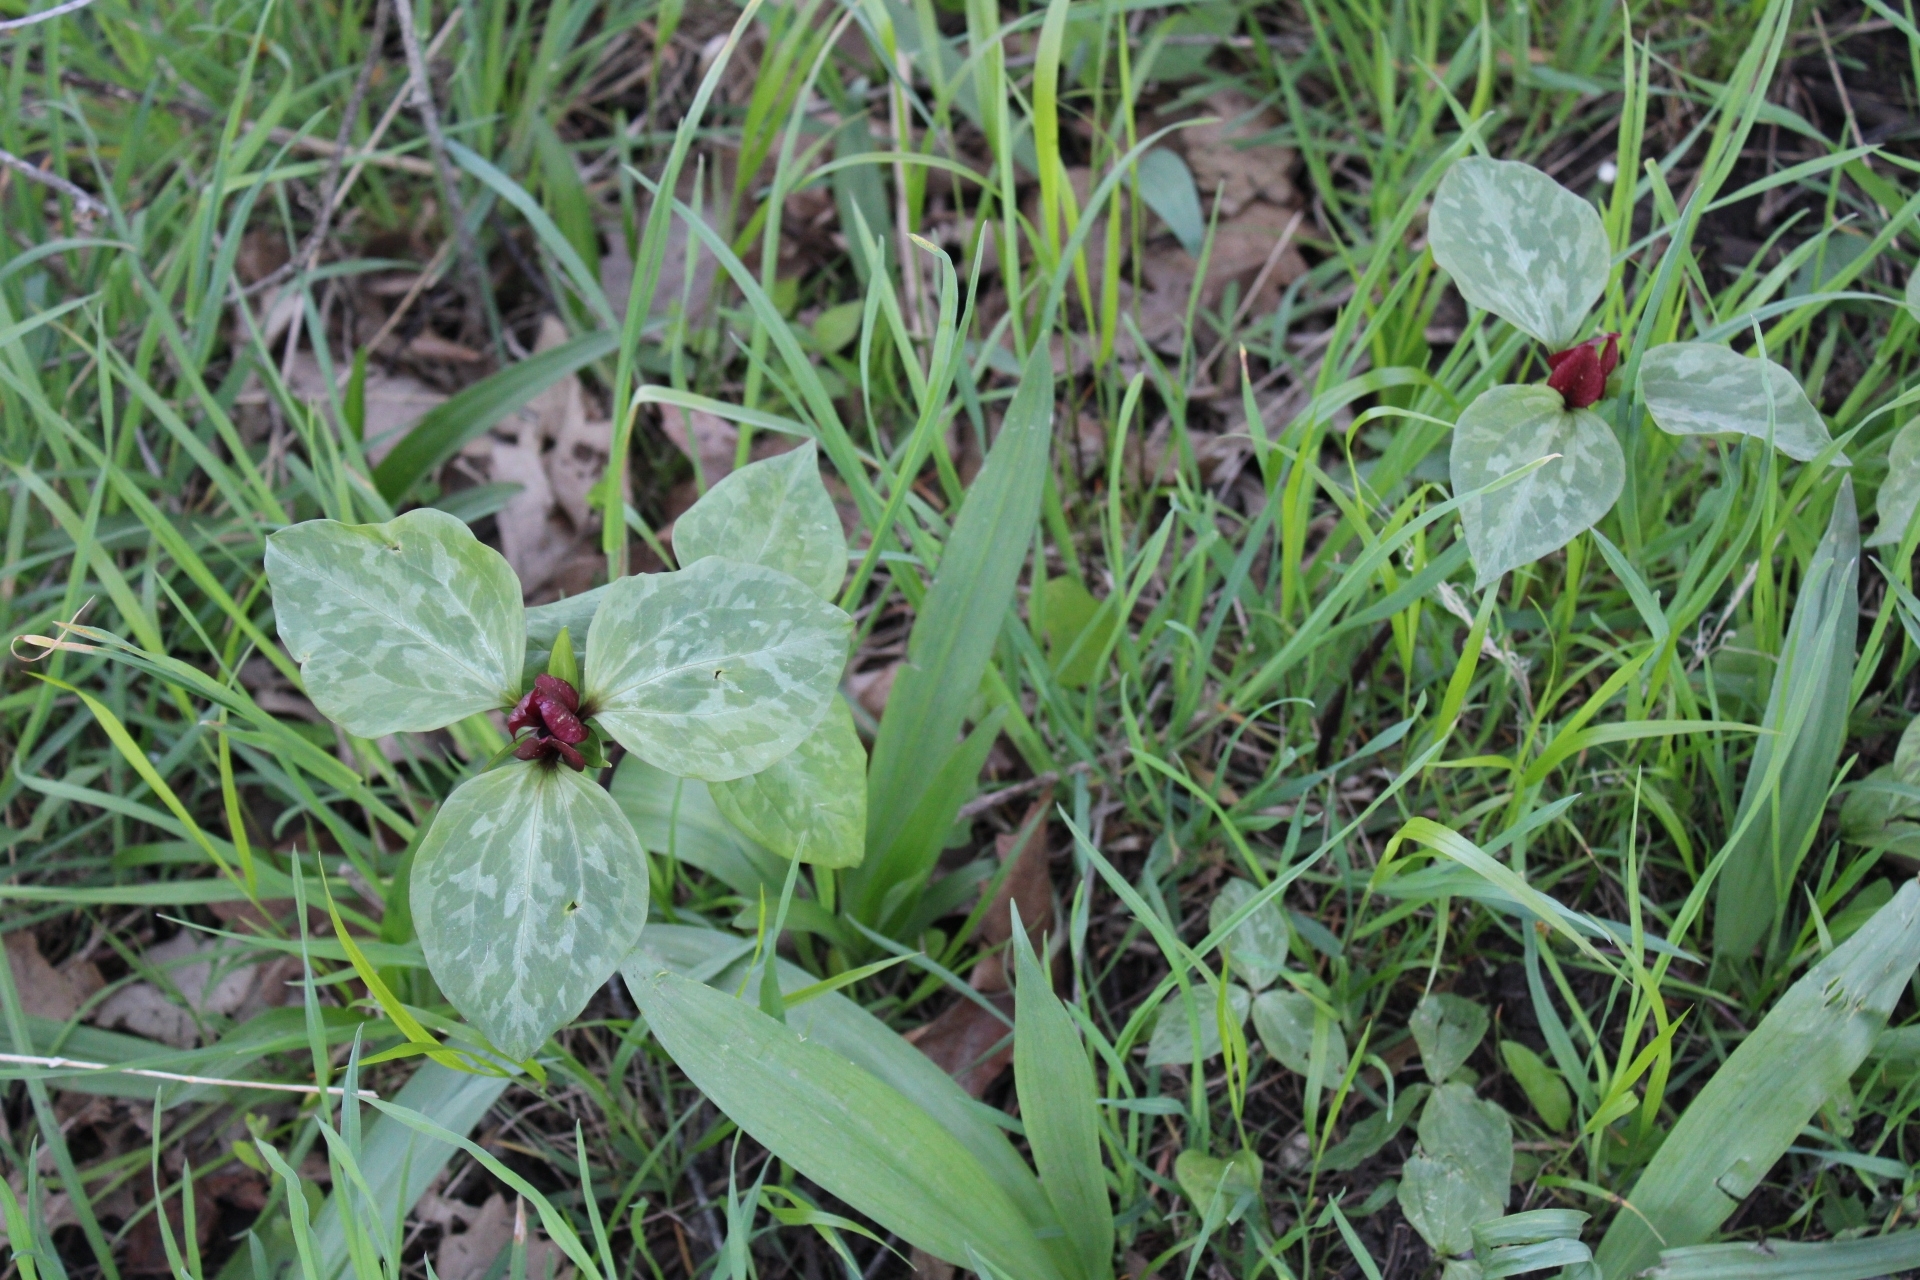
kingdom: Plantae
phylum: Tracheophyta
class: Liliopsida
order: Liliales
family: Melanthiaceae
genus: Trillium
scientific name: Trillium recurvatum
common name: Bloody butcher
